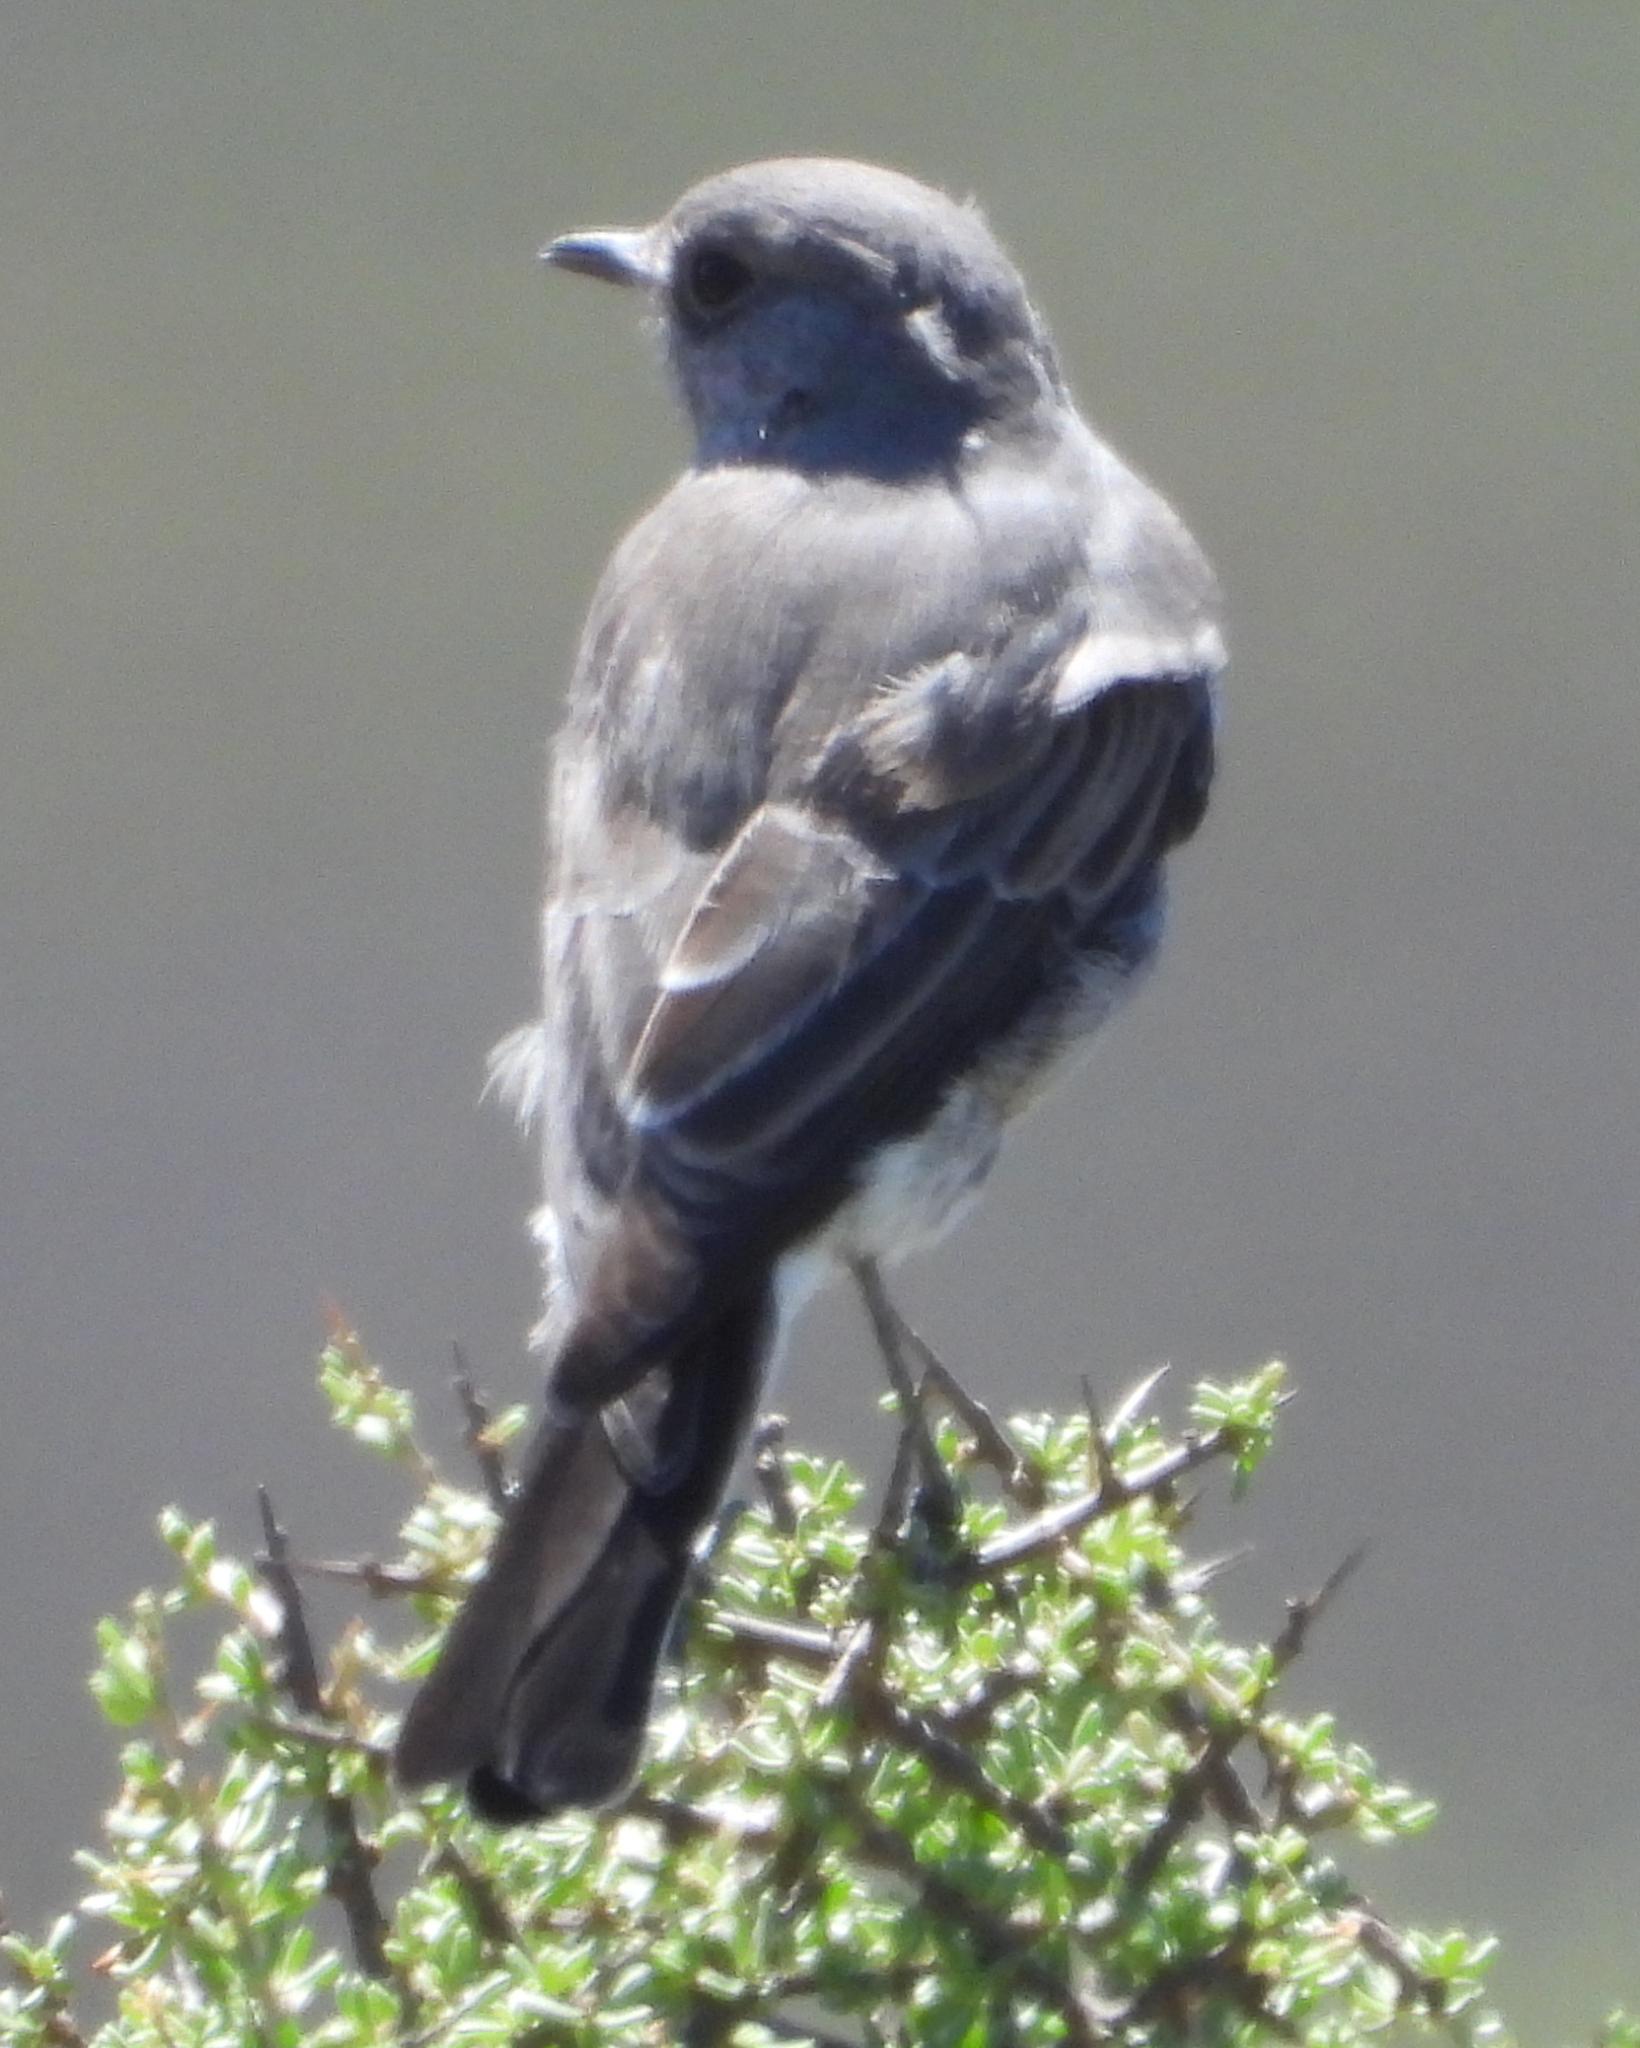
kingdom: Animalia
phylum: Chordata
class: Aves
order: Passeriformes
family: Muscicapidae
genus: Emarginata
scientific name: Emarginata schlegelii
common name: Karoo chat
